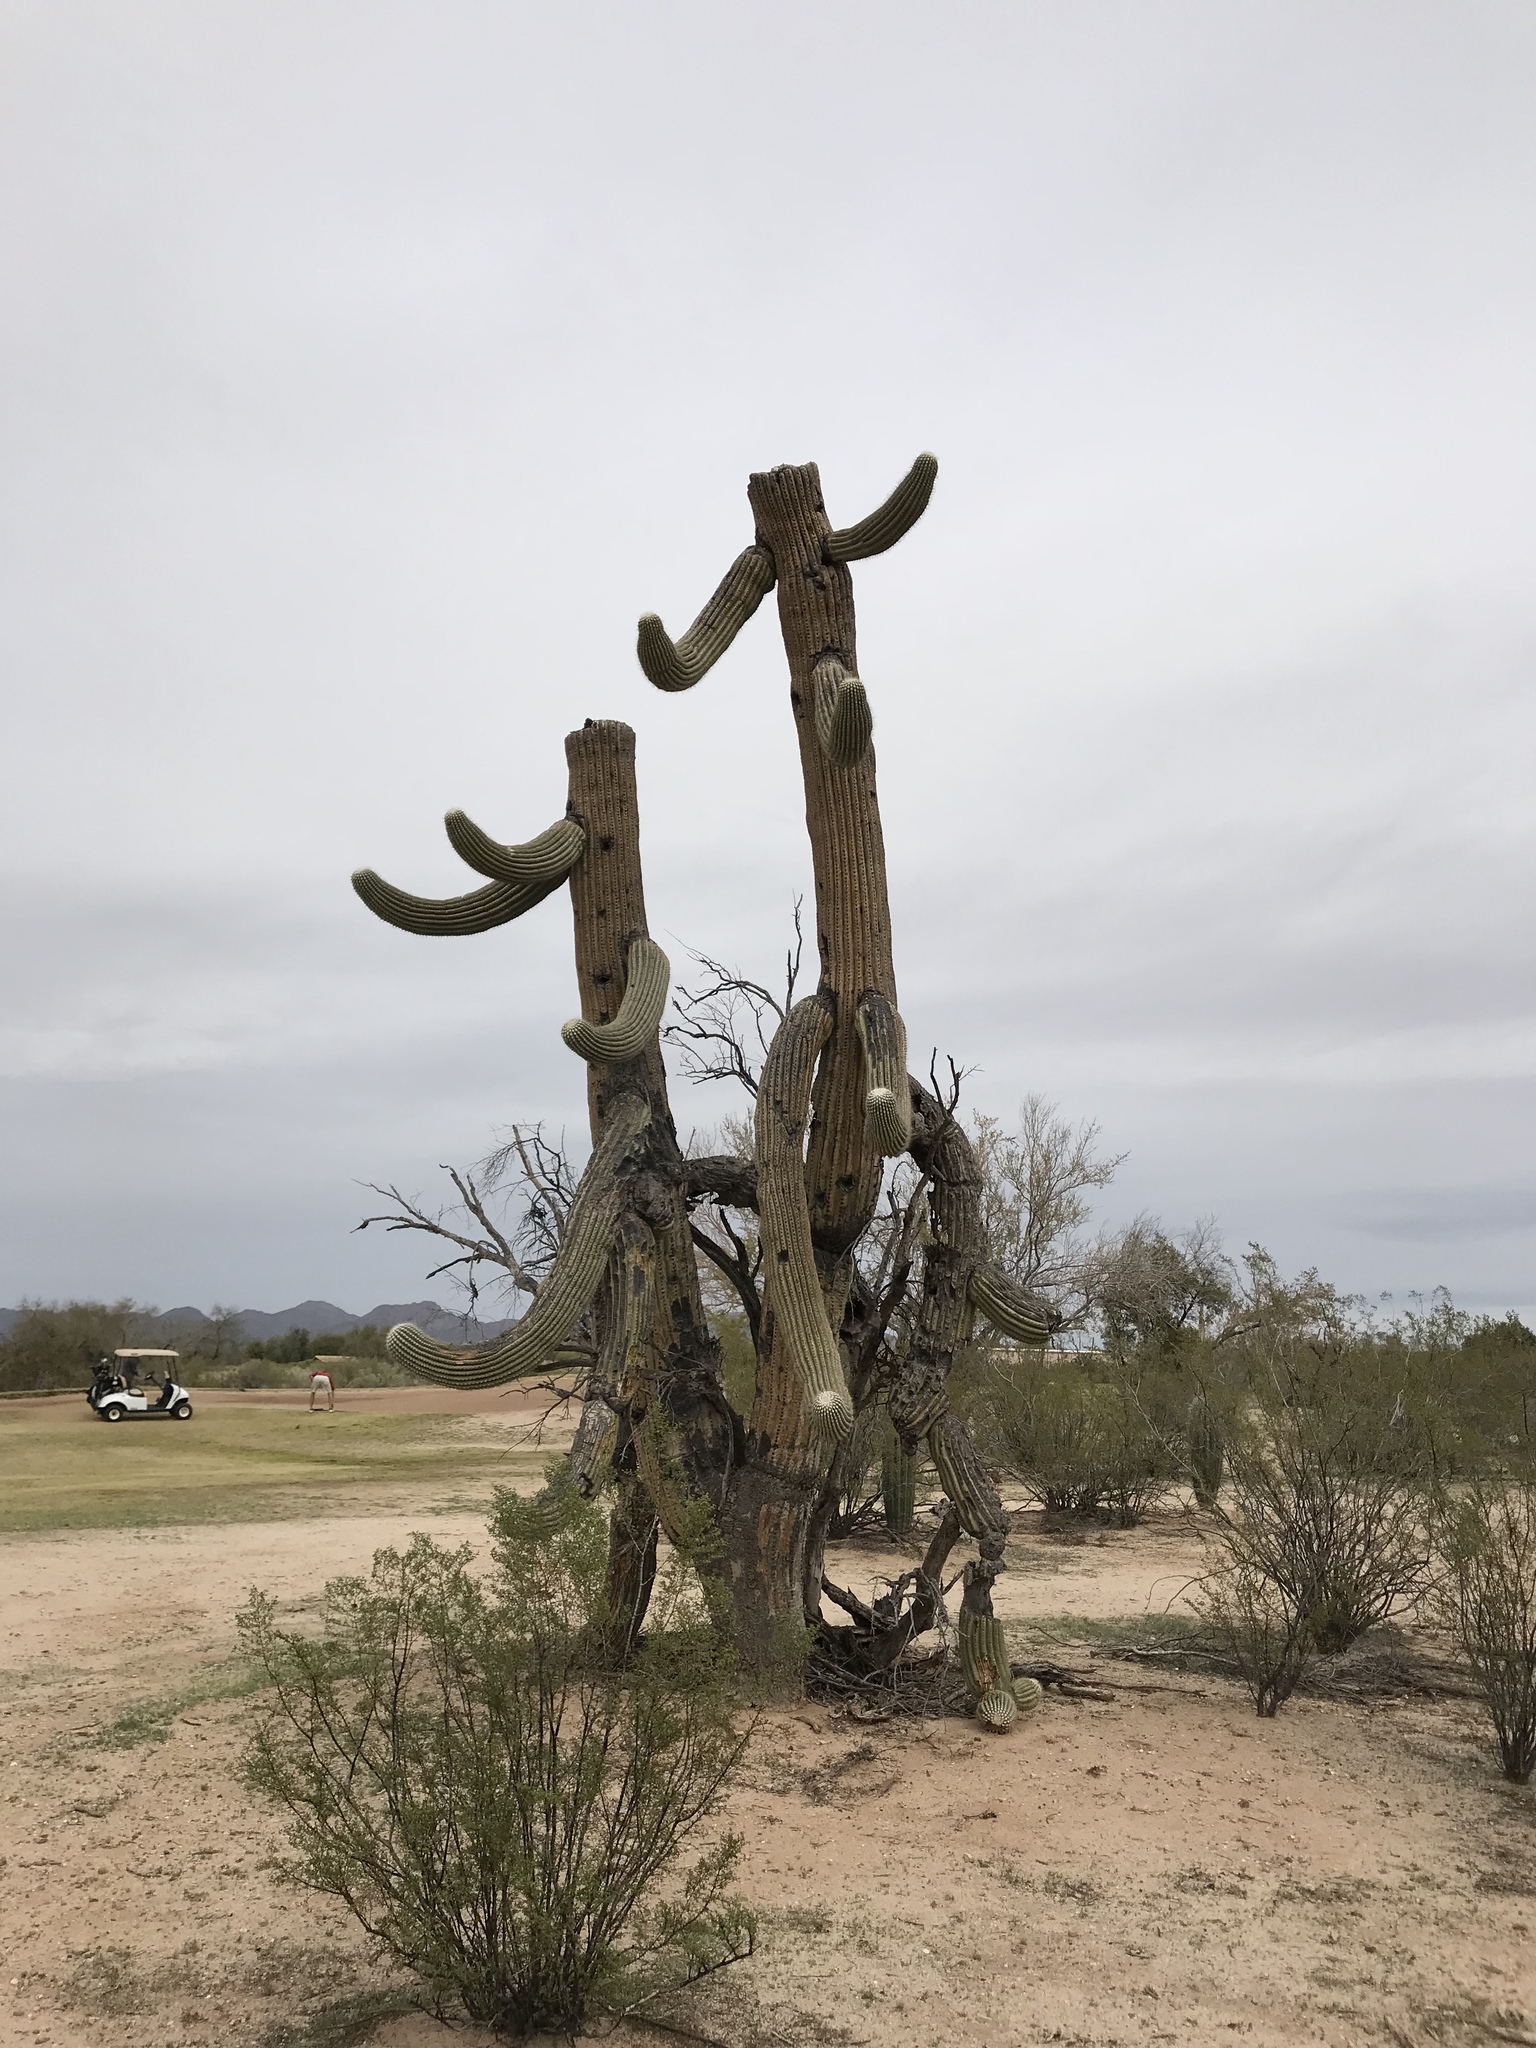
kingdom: Plantae
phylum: Tracheophyta
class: Magnoliopsida
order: Caryophyllales
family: Cactaceae
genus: Carnegiea
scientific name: Carnegiea gigantea
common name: Saguaro
